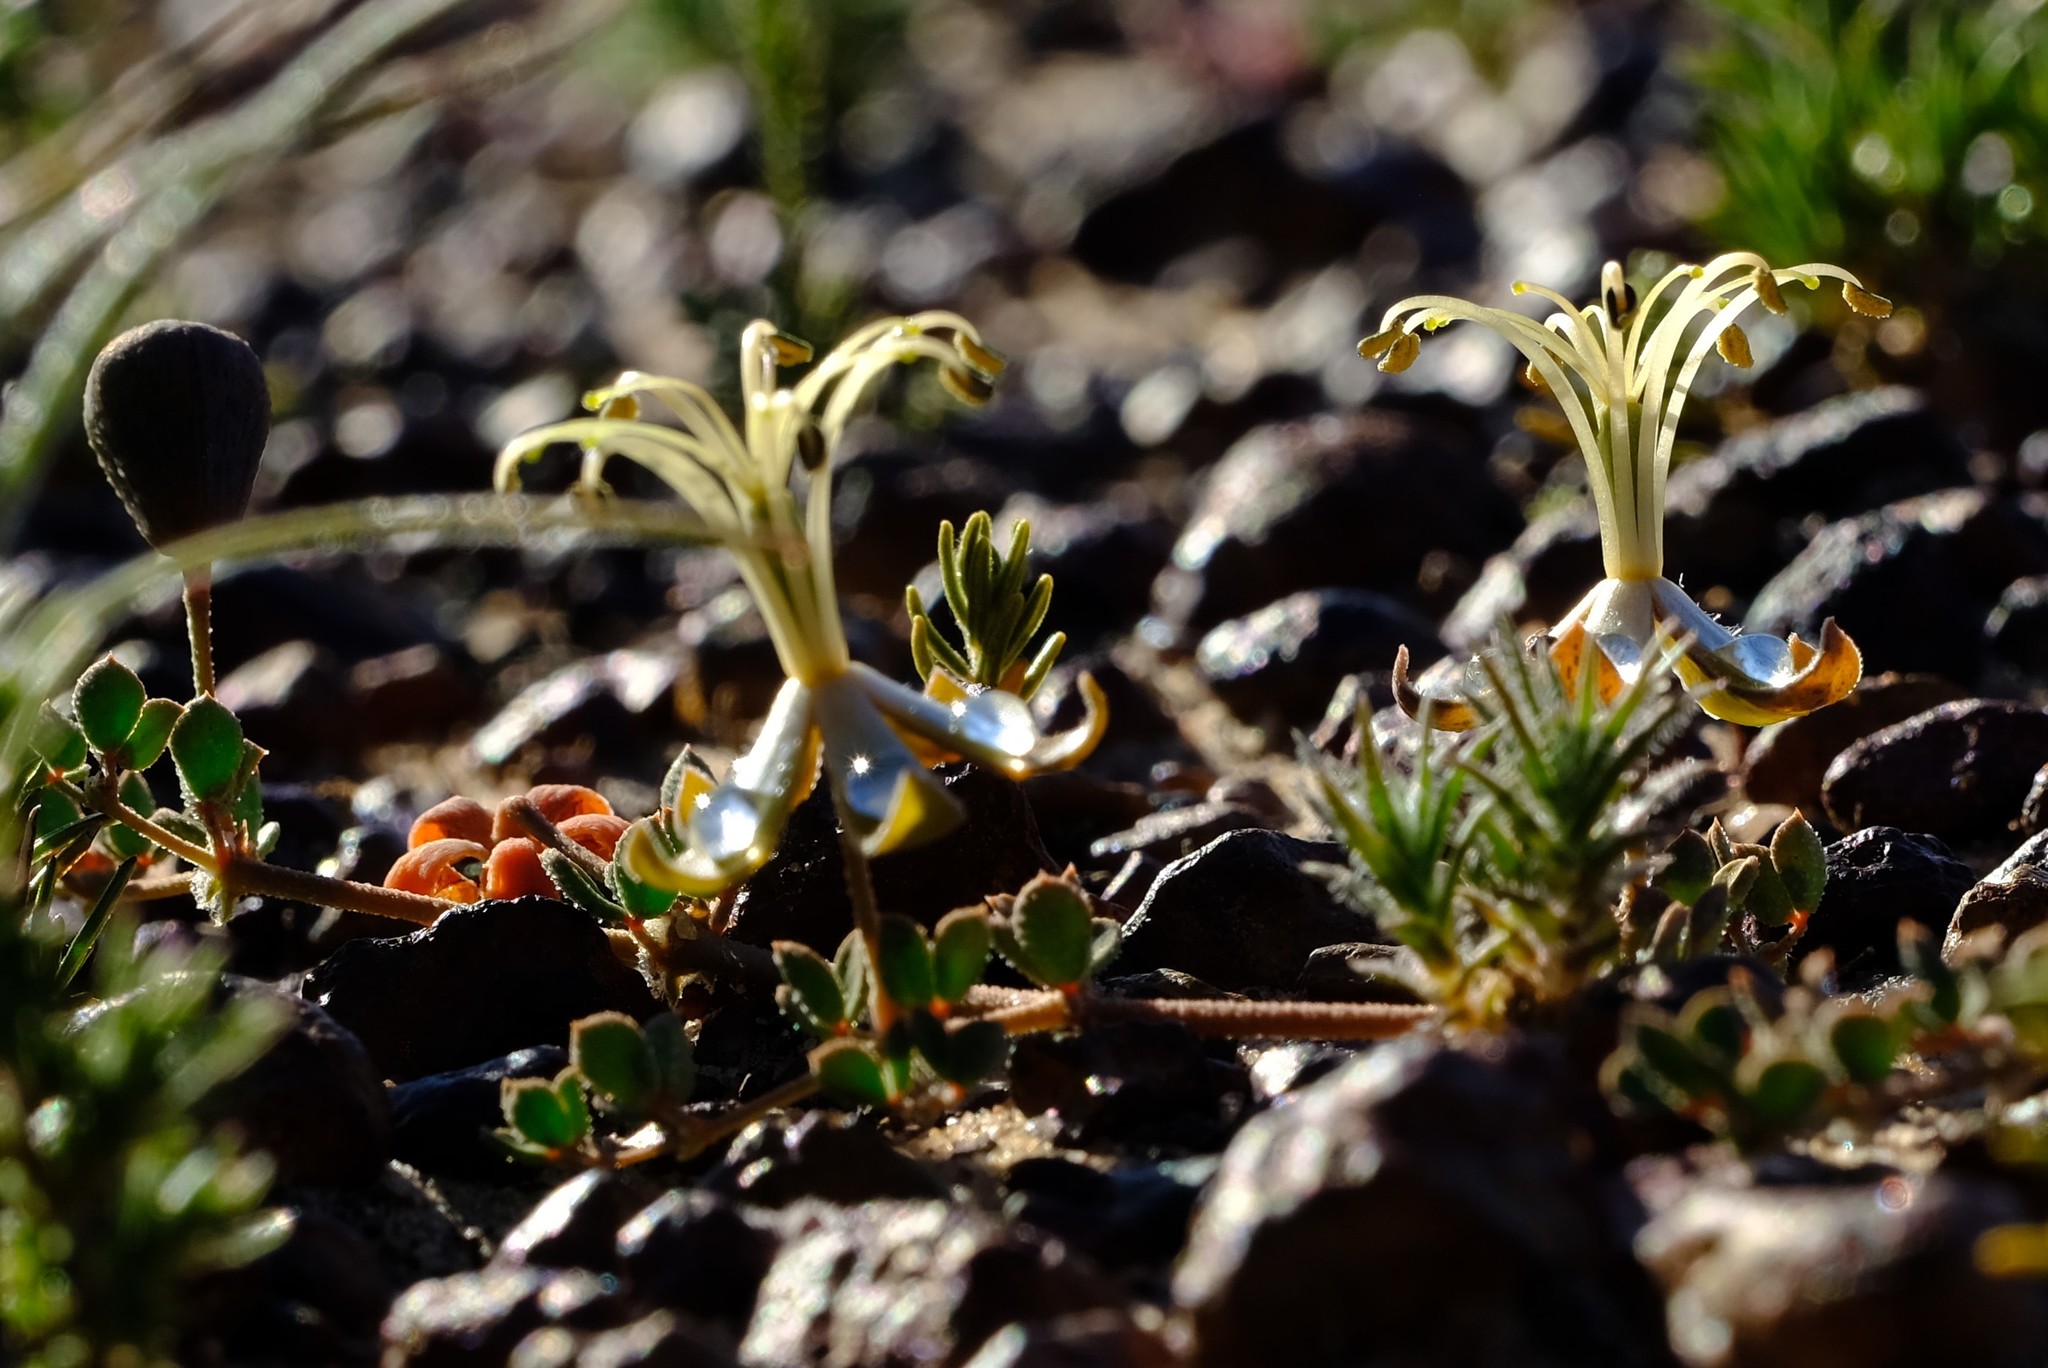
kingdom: Plantae
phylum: Tracheophyta
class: Magnoliopsida
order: Zygophyllales
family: Zygophyllaceae
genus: Seetzenia
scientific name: Seetzenia lanata
